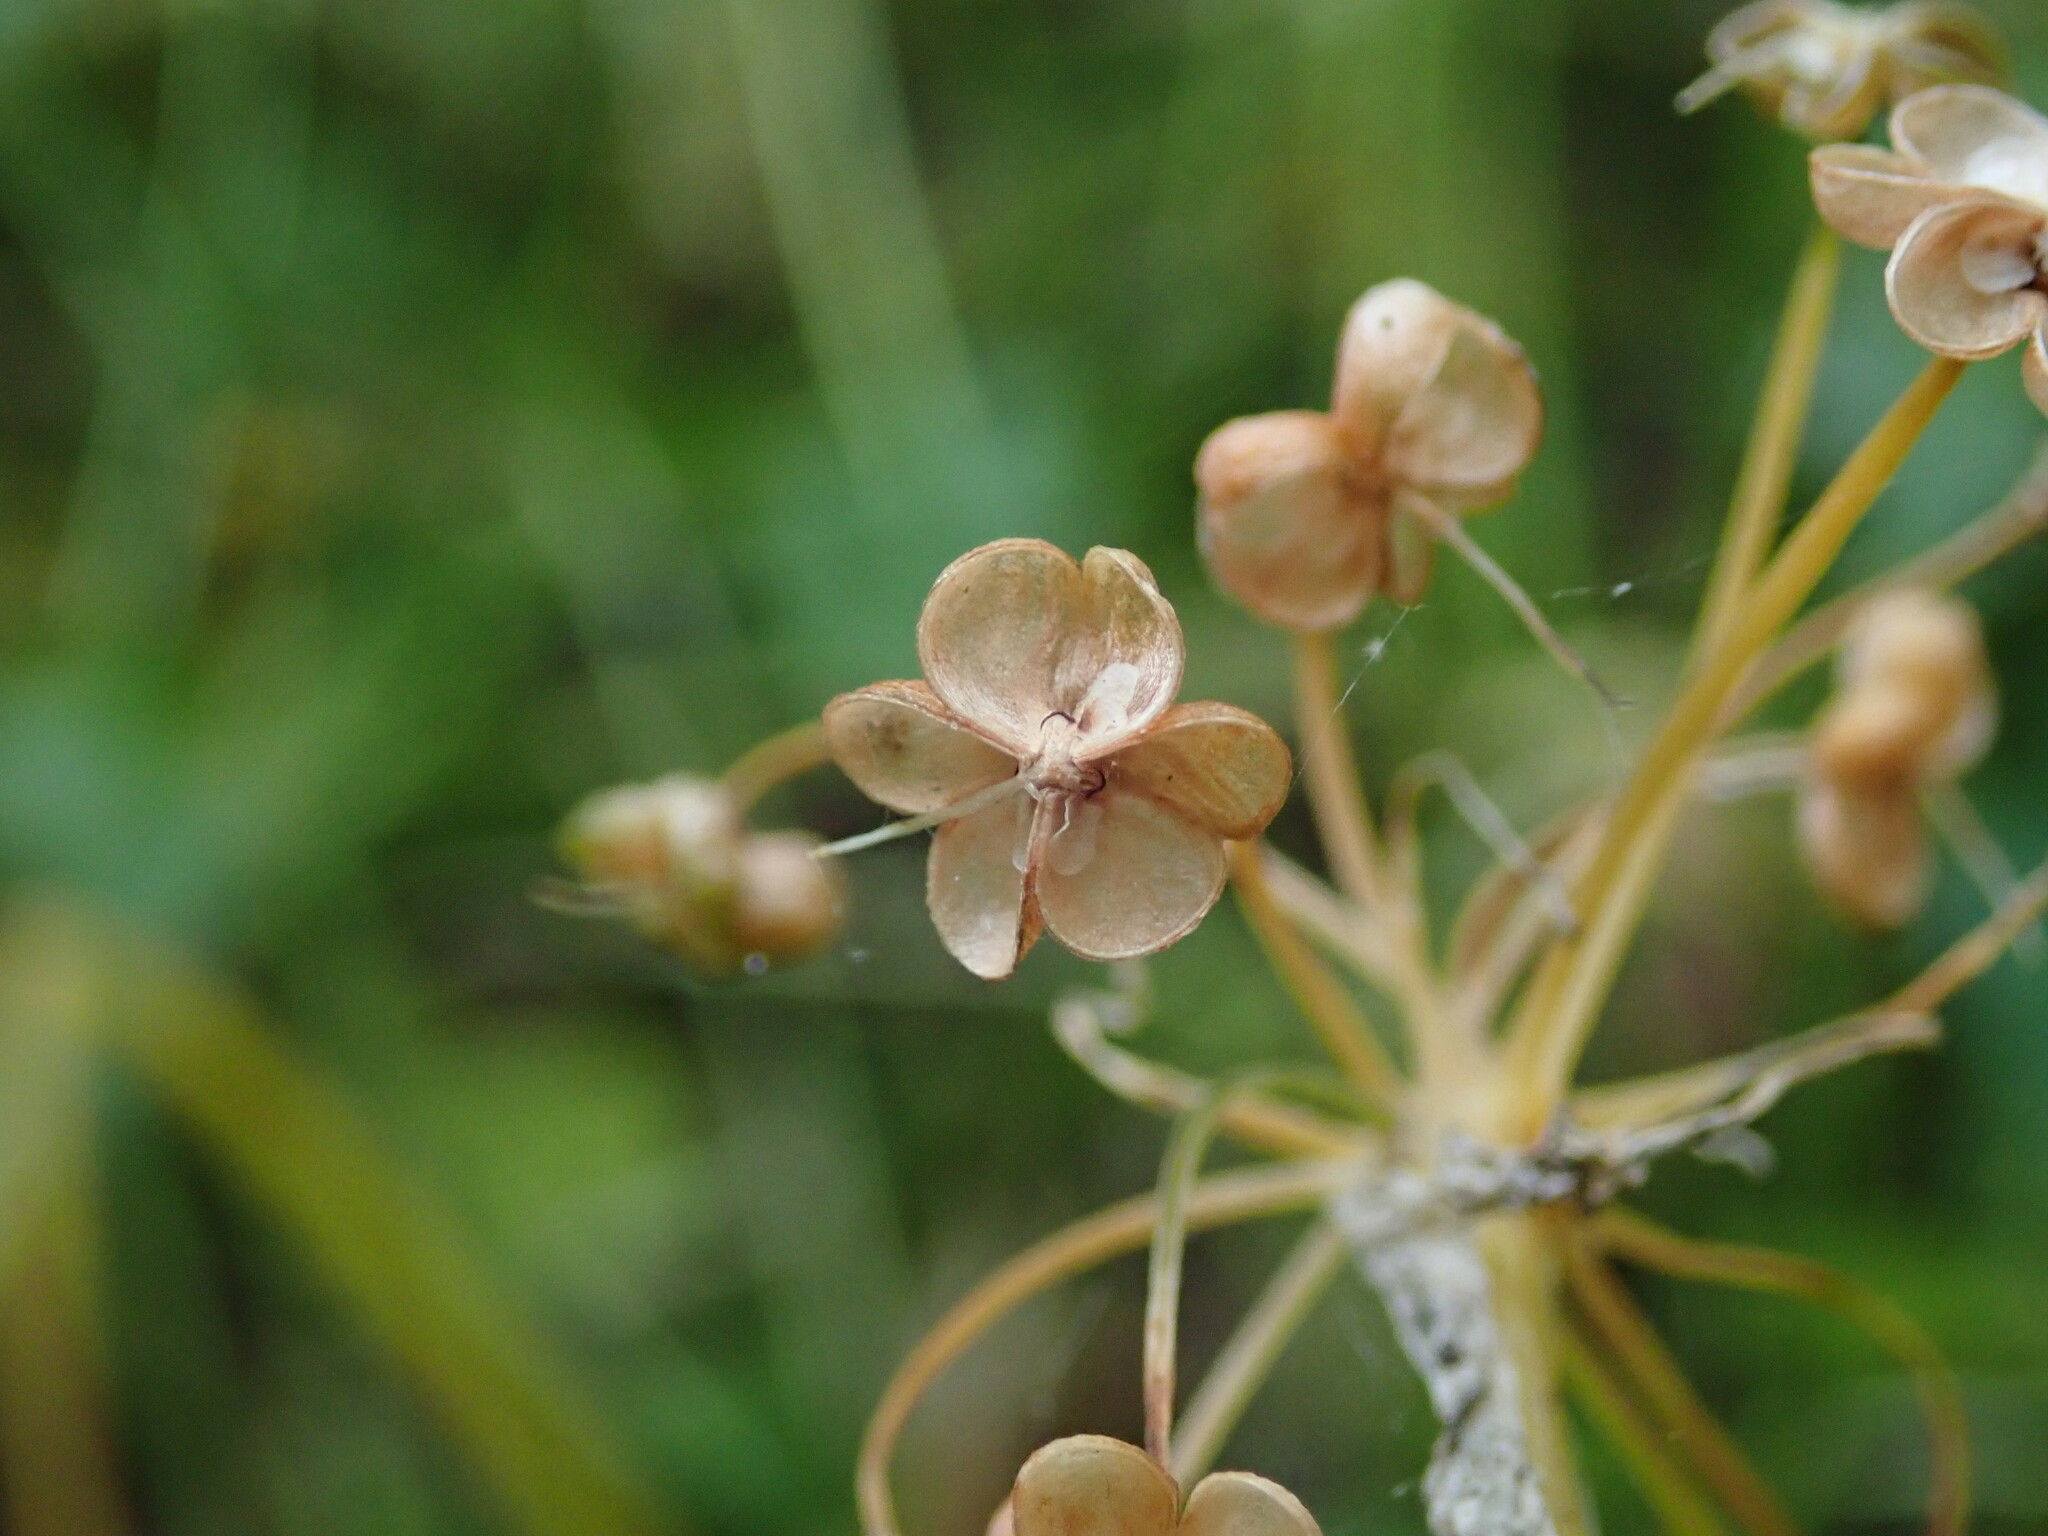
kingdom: Plantae
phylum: Tracheophyta
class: Liliopsida
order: Asparagales
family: Amaryllidaceae
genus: Allium
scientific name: Allium ursinum
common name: Ramsons
